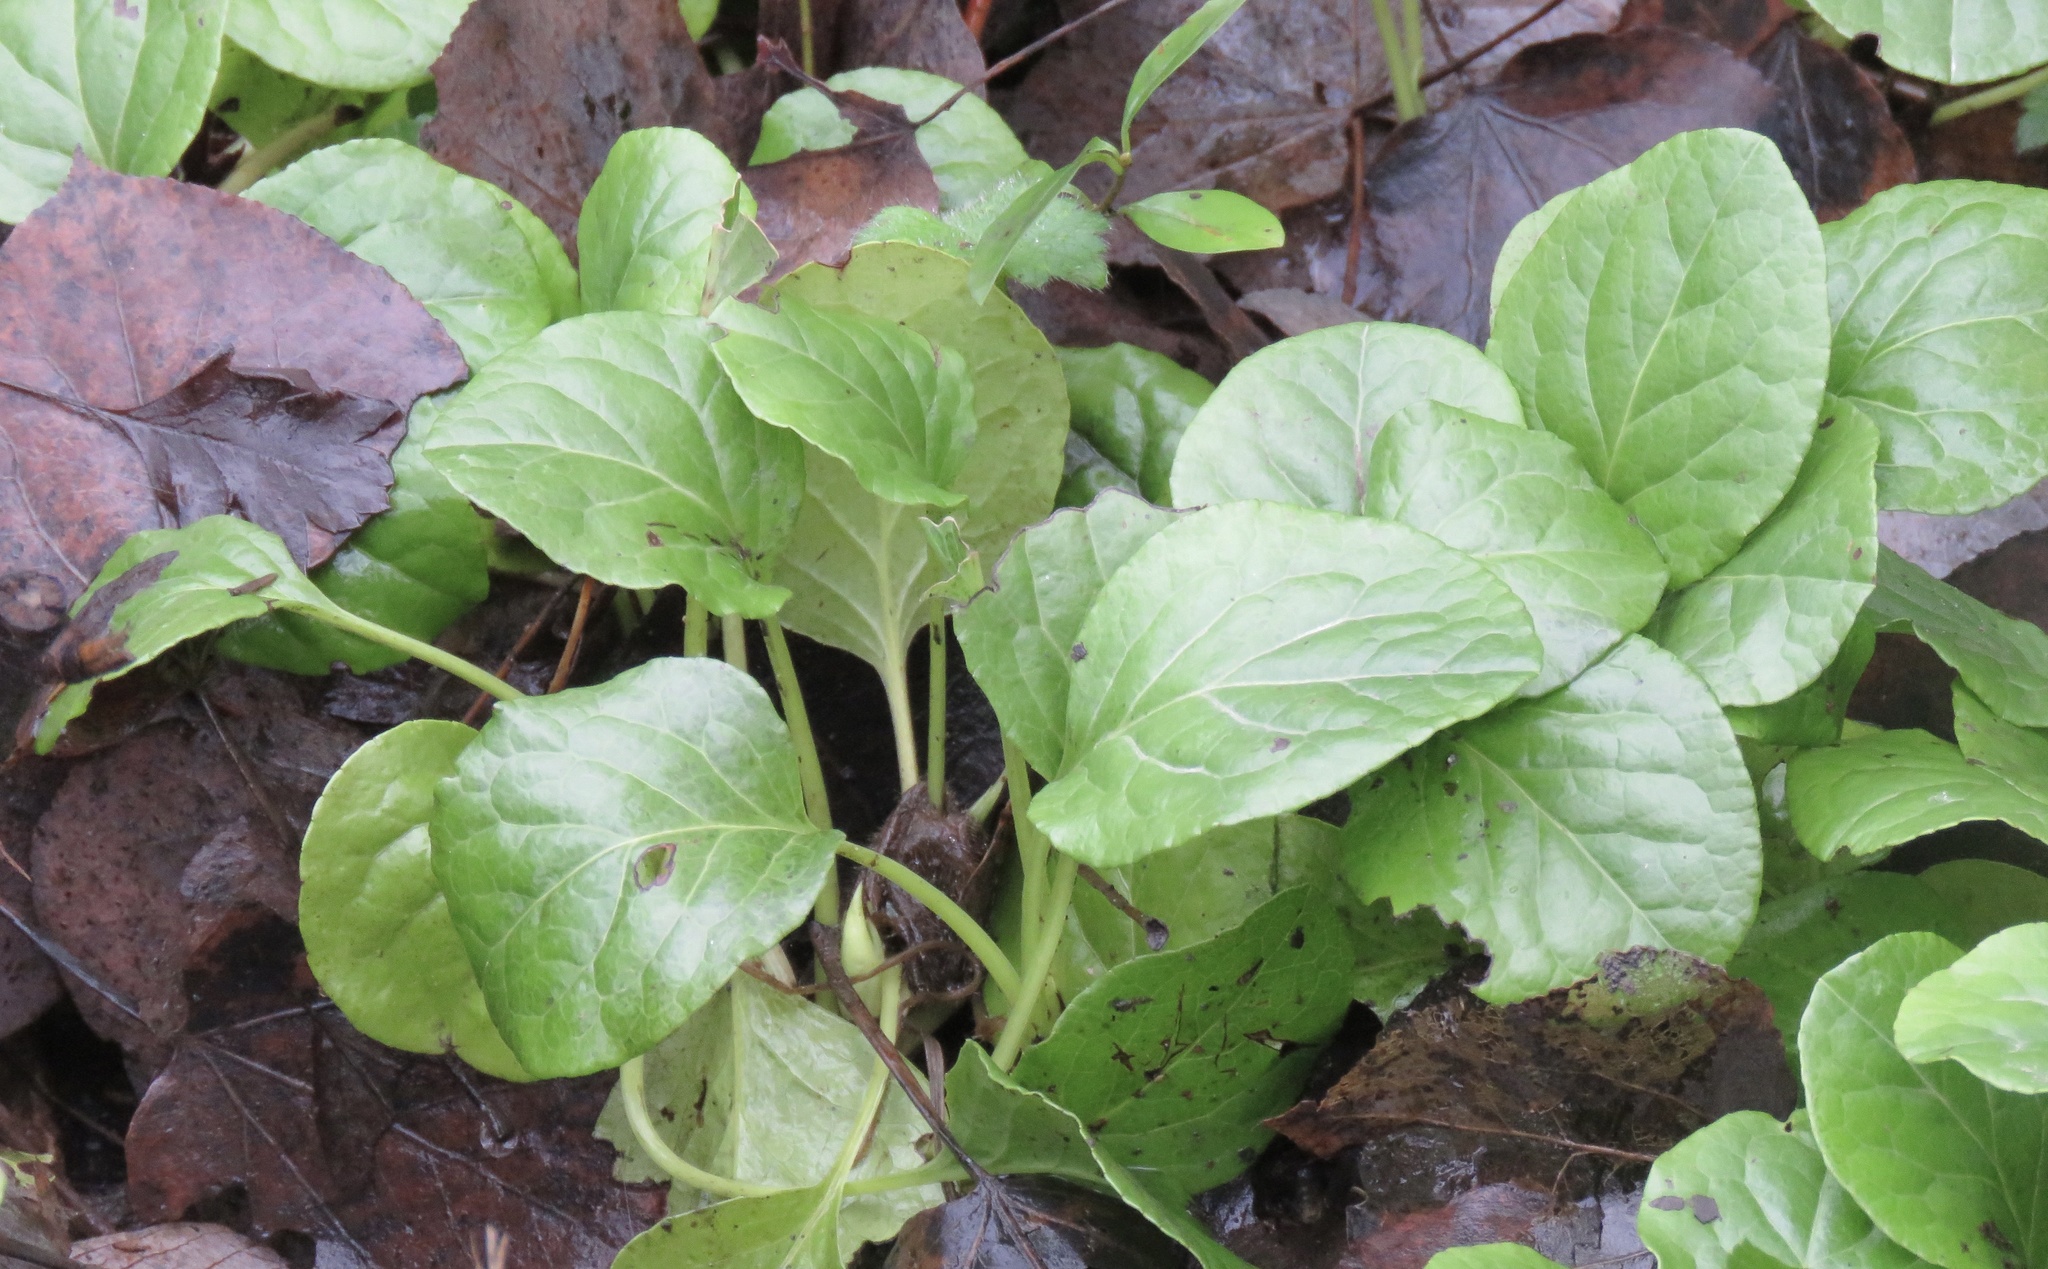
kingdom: Plantae
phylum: Tracheophyta
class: Magnoliopsida
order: Ericales
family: Ericaceae
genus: Pyrola
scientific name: Pyrola asarifolia
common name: Bog wintergreen
